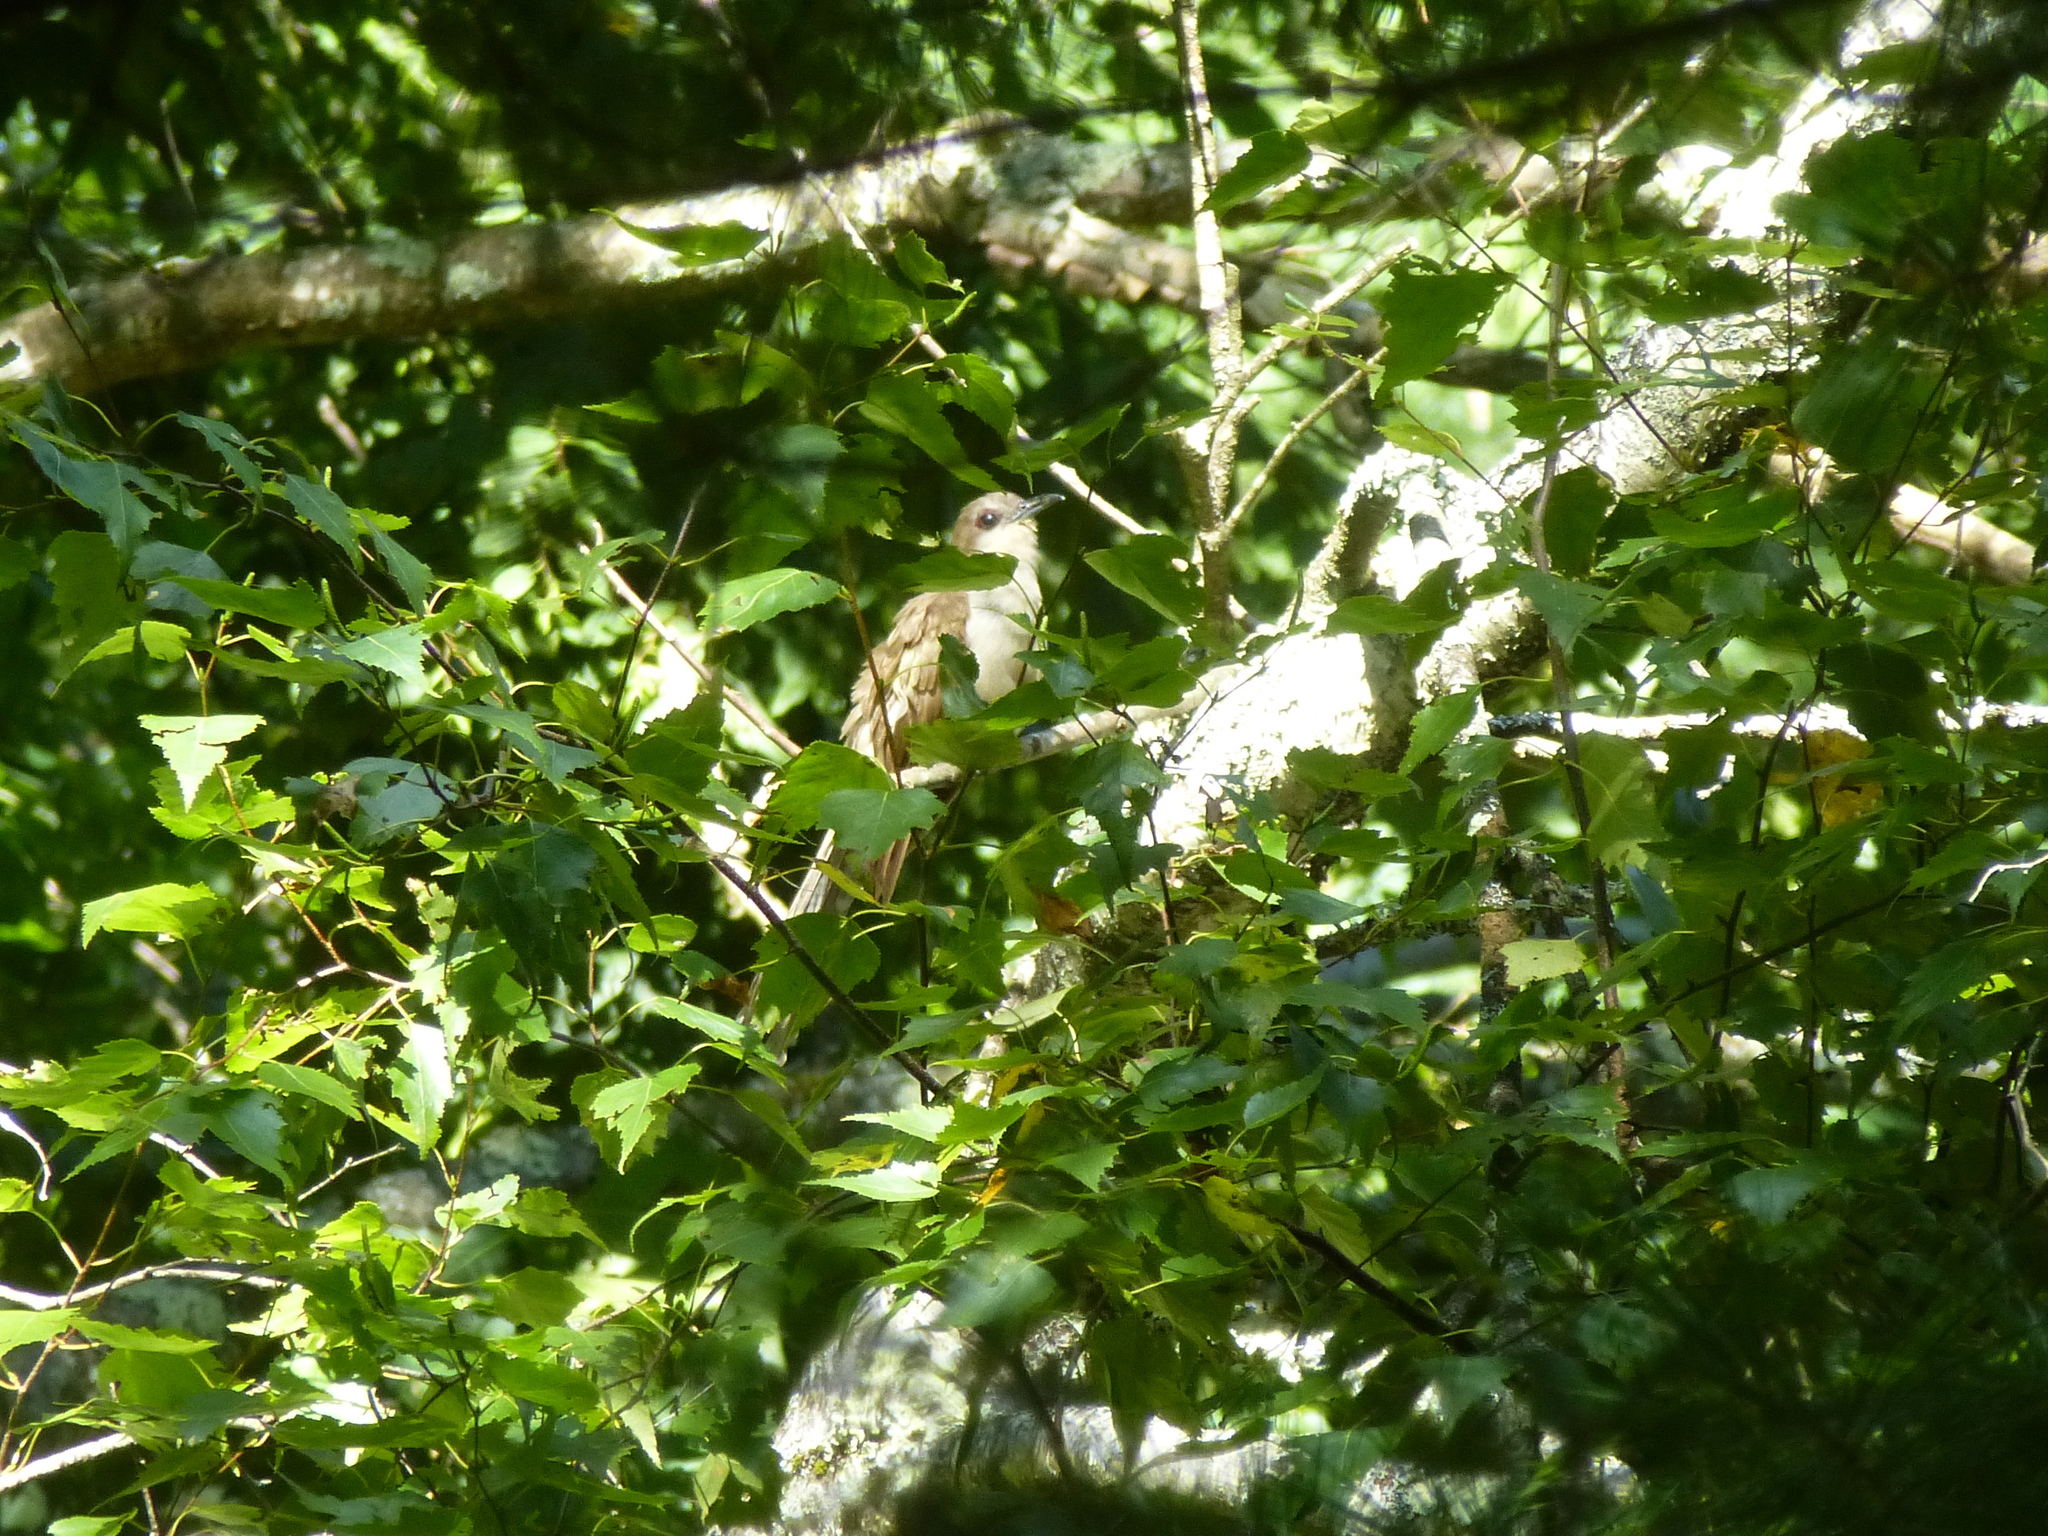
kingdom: Animalia
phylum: Chordata
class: Aves
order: Cuculiformes
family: Cuculidae
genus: Coccyzus
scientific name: Coccyzus erythropthalmus
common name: Black-billed cuckoo
